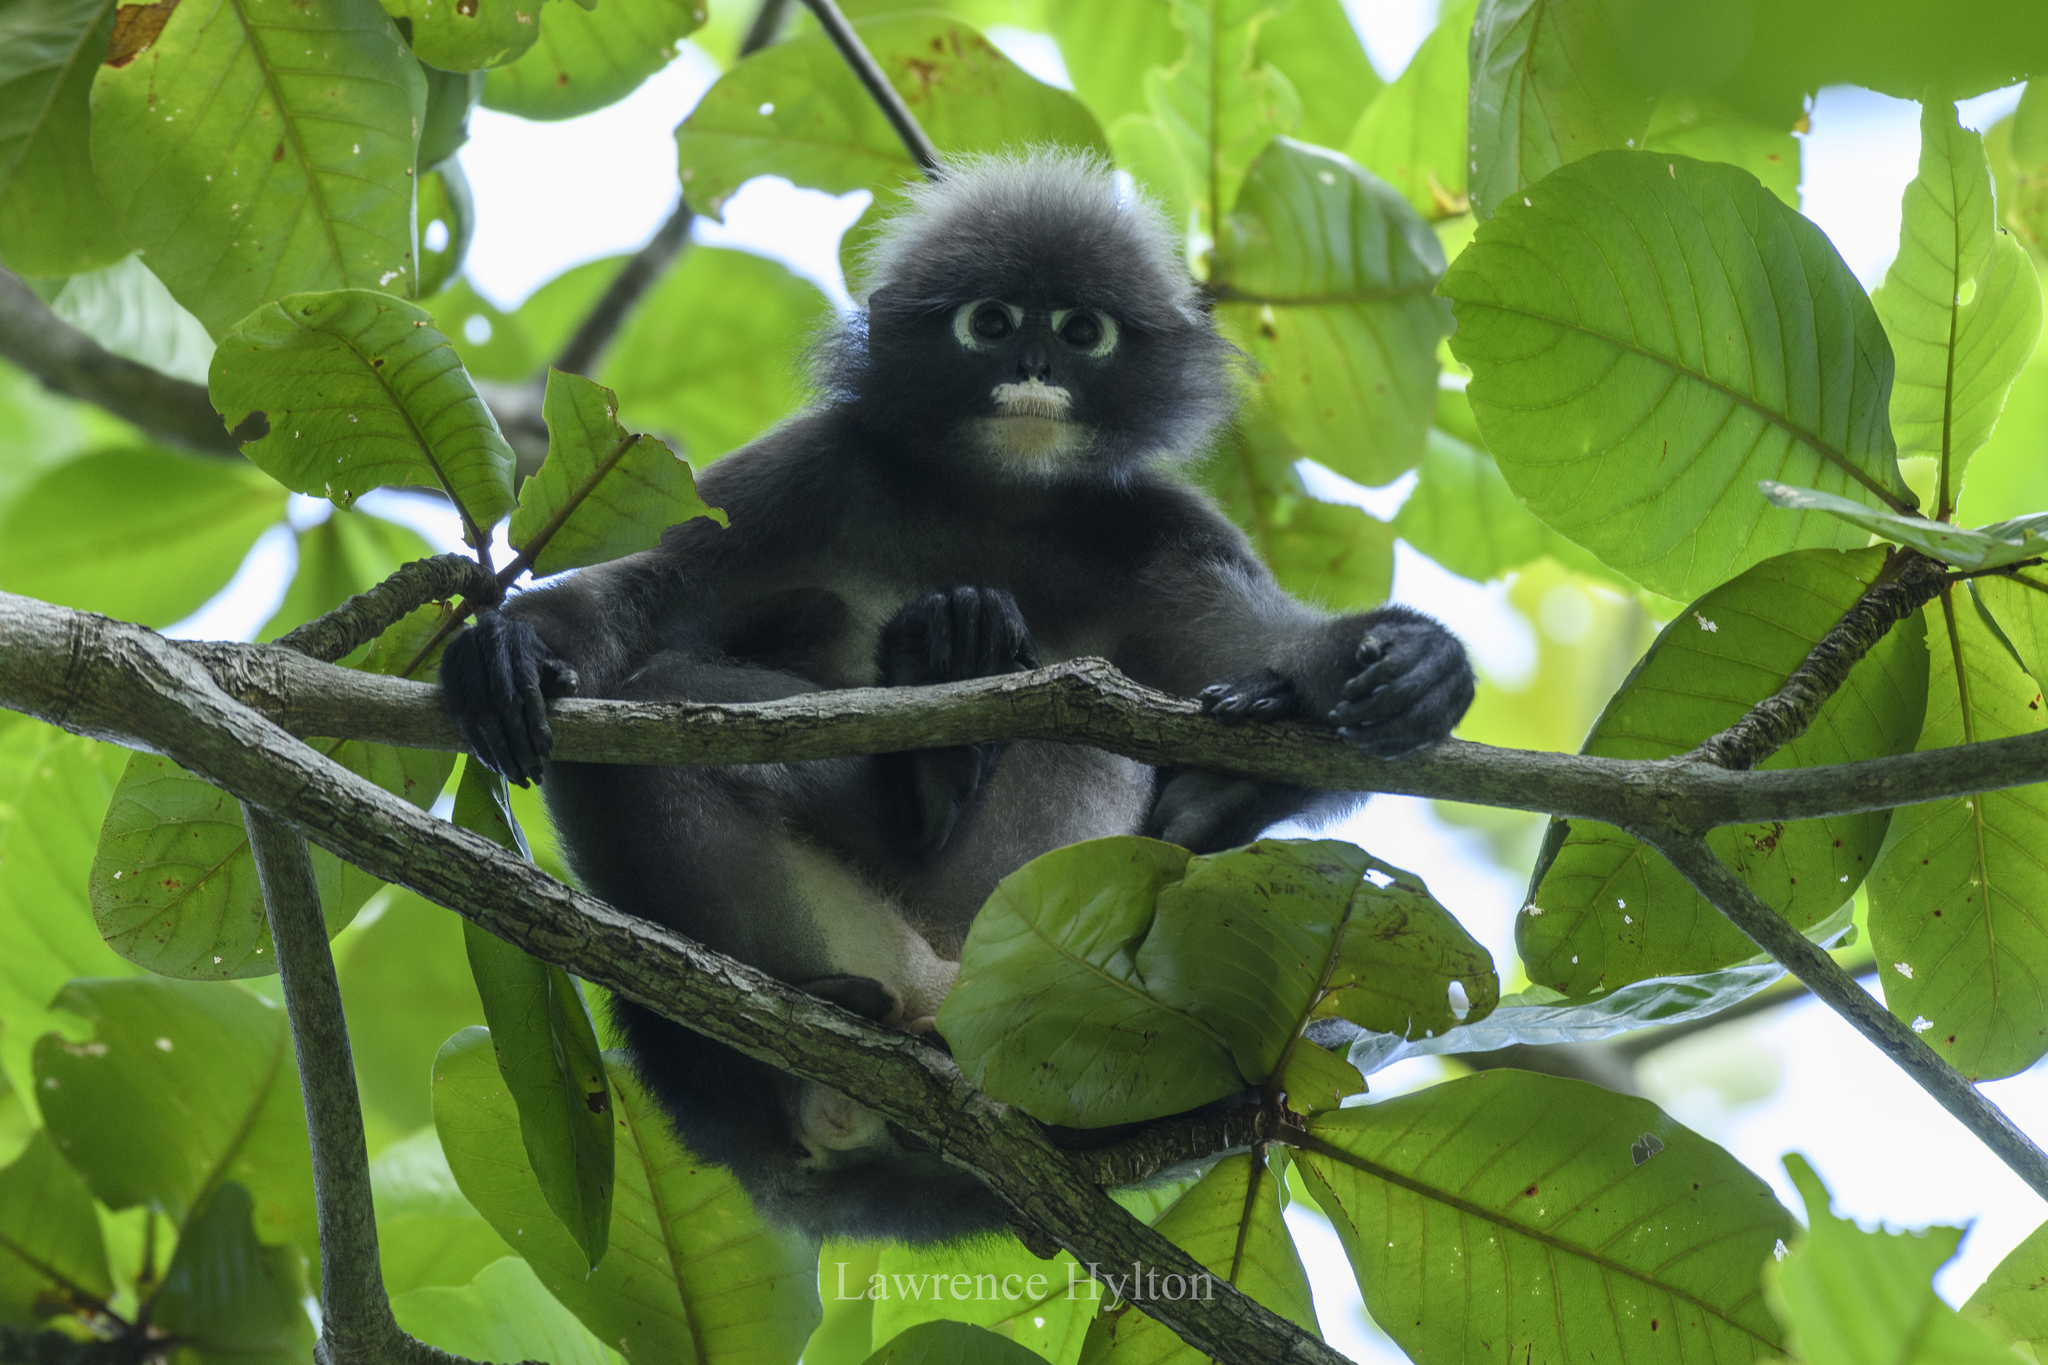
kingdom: Animalia
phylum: Chordata
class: Mammalia
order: Primates
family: Cercopithecidae
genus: Trachypithecus
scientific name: Trachypithecus obscurus
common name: Dusky leaf-monkey
